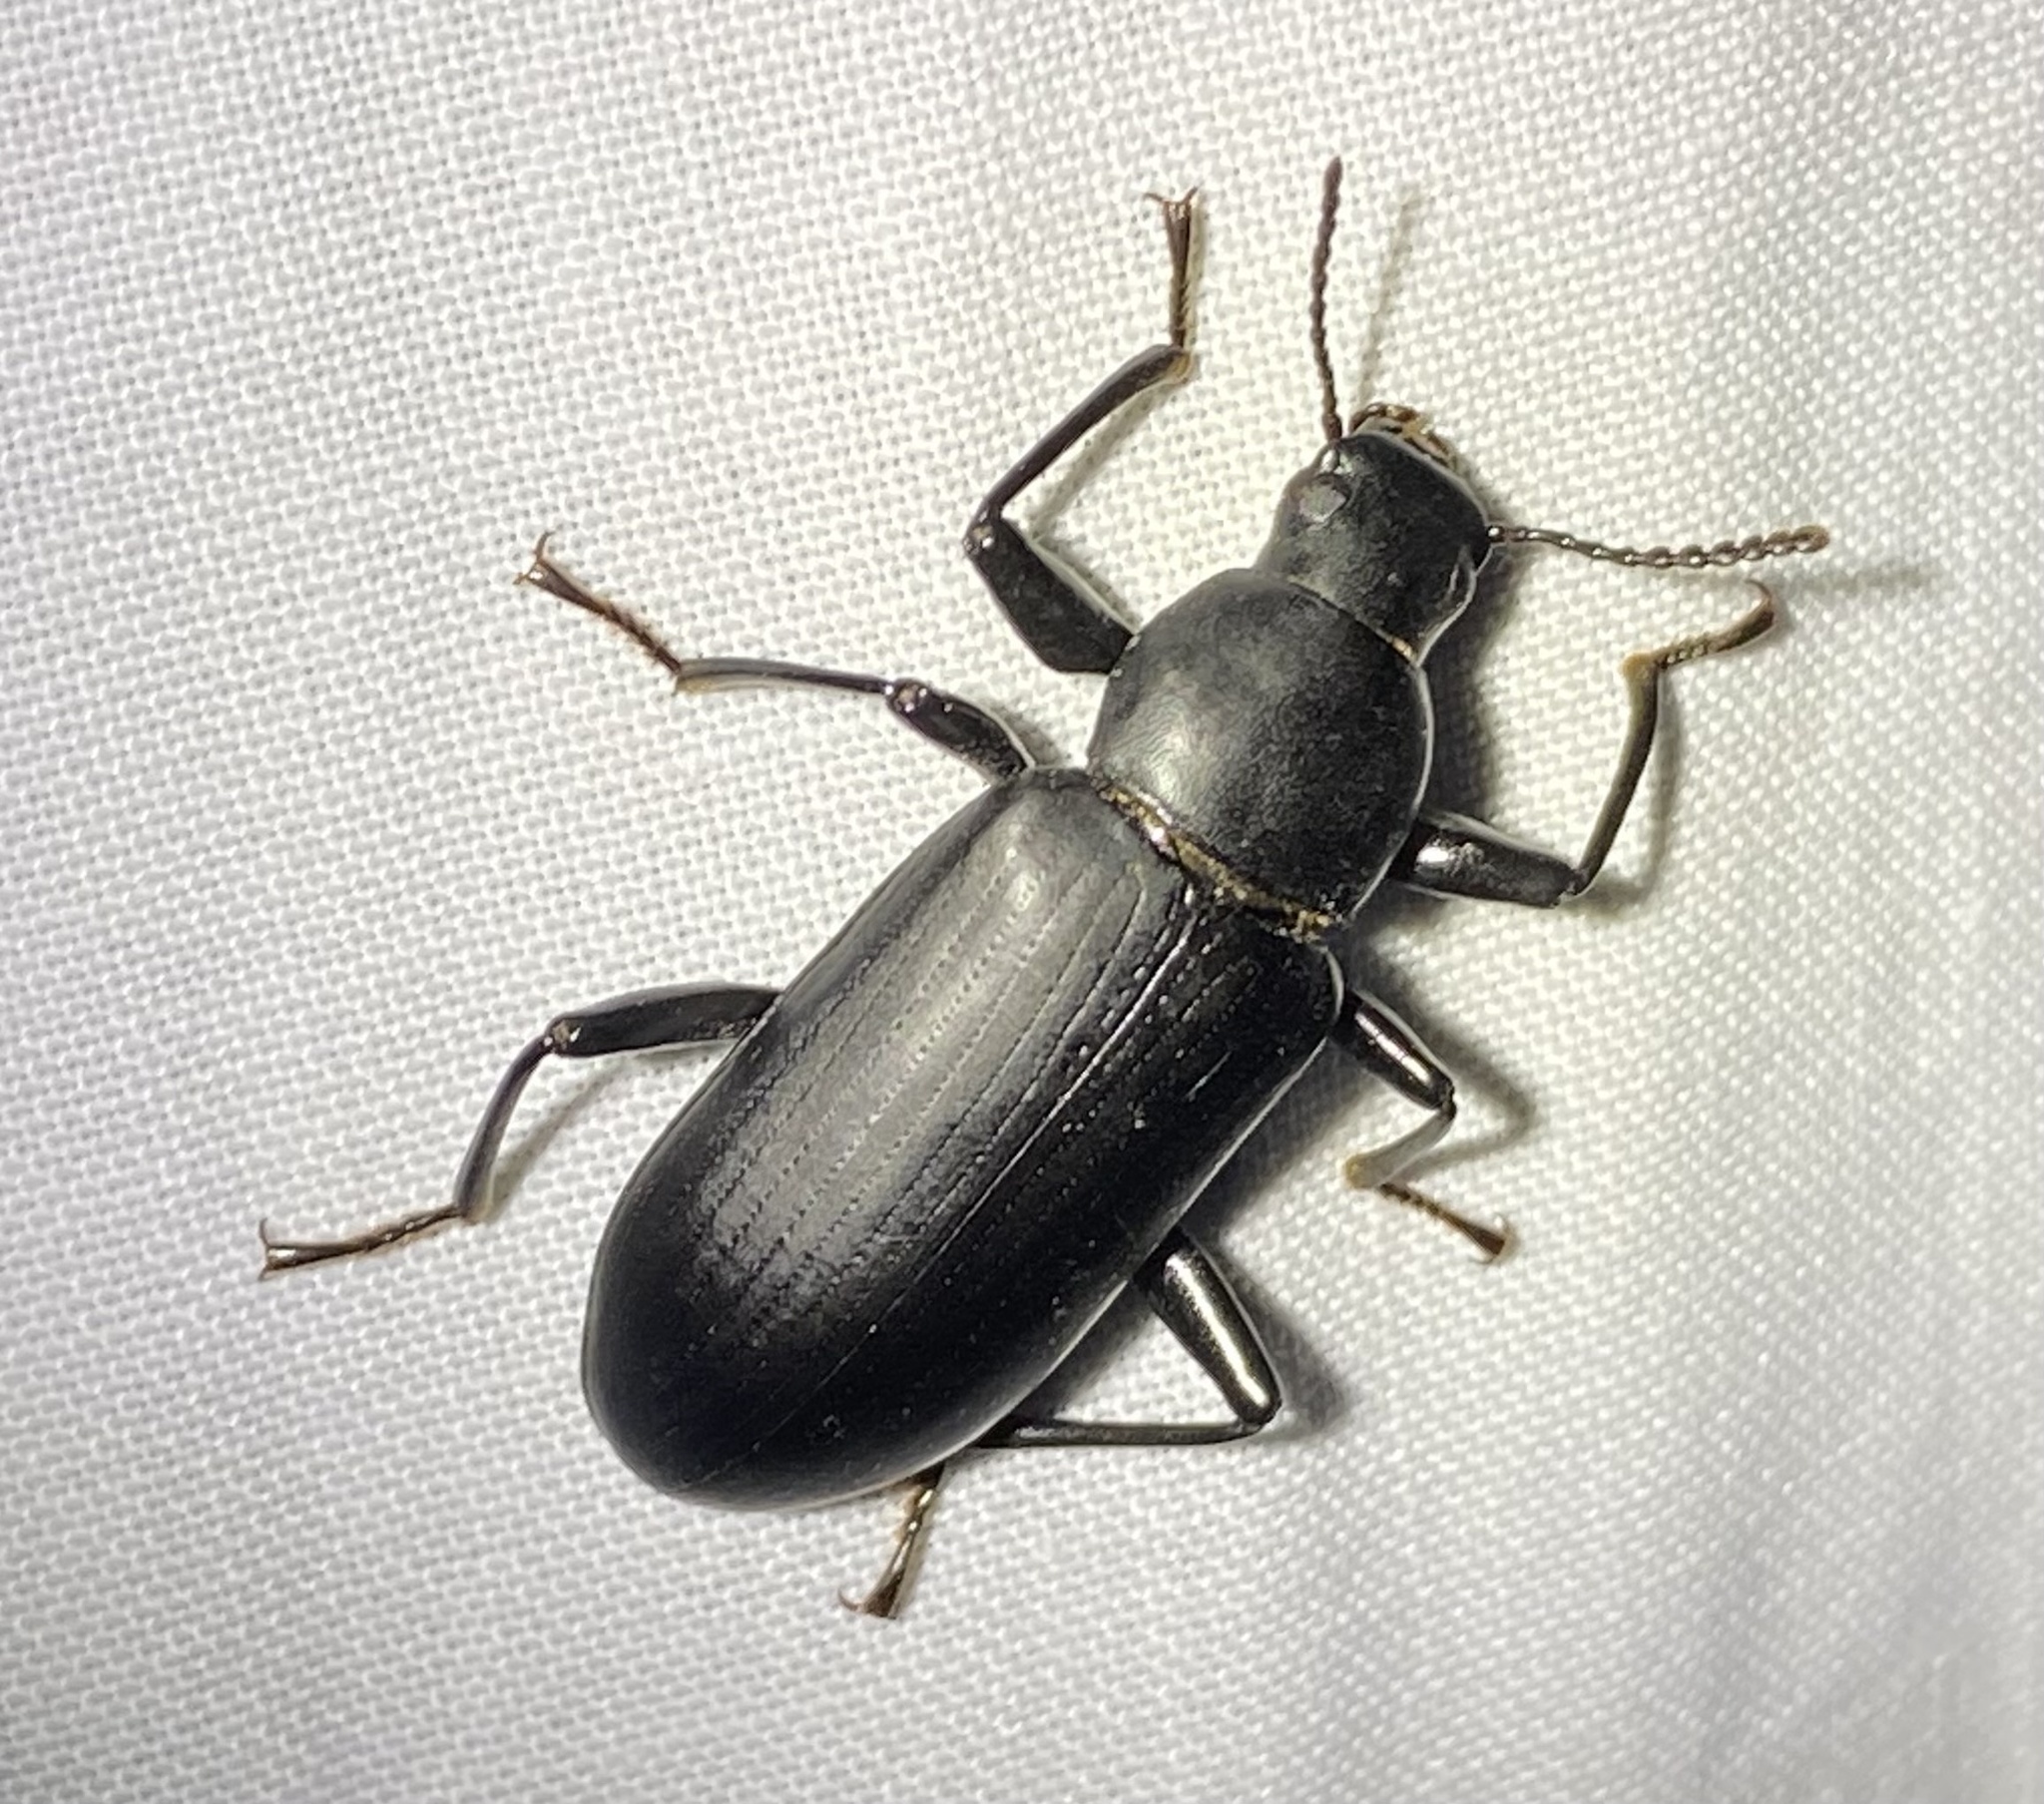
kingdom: Animalia
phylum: Arthropoda
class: Insecta
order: Coleoptera
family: Tenebrionidae
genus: Alobates
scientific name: Alobates
